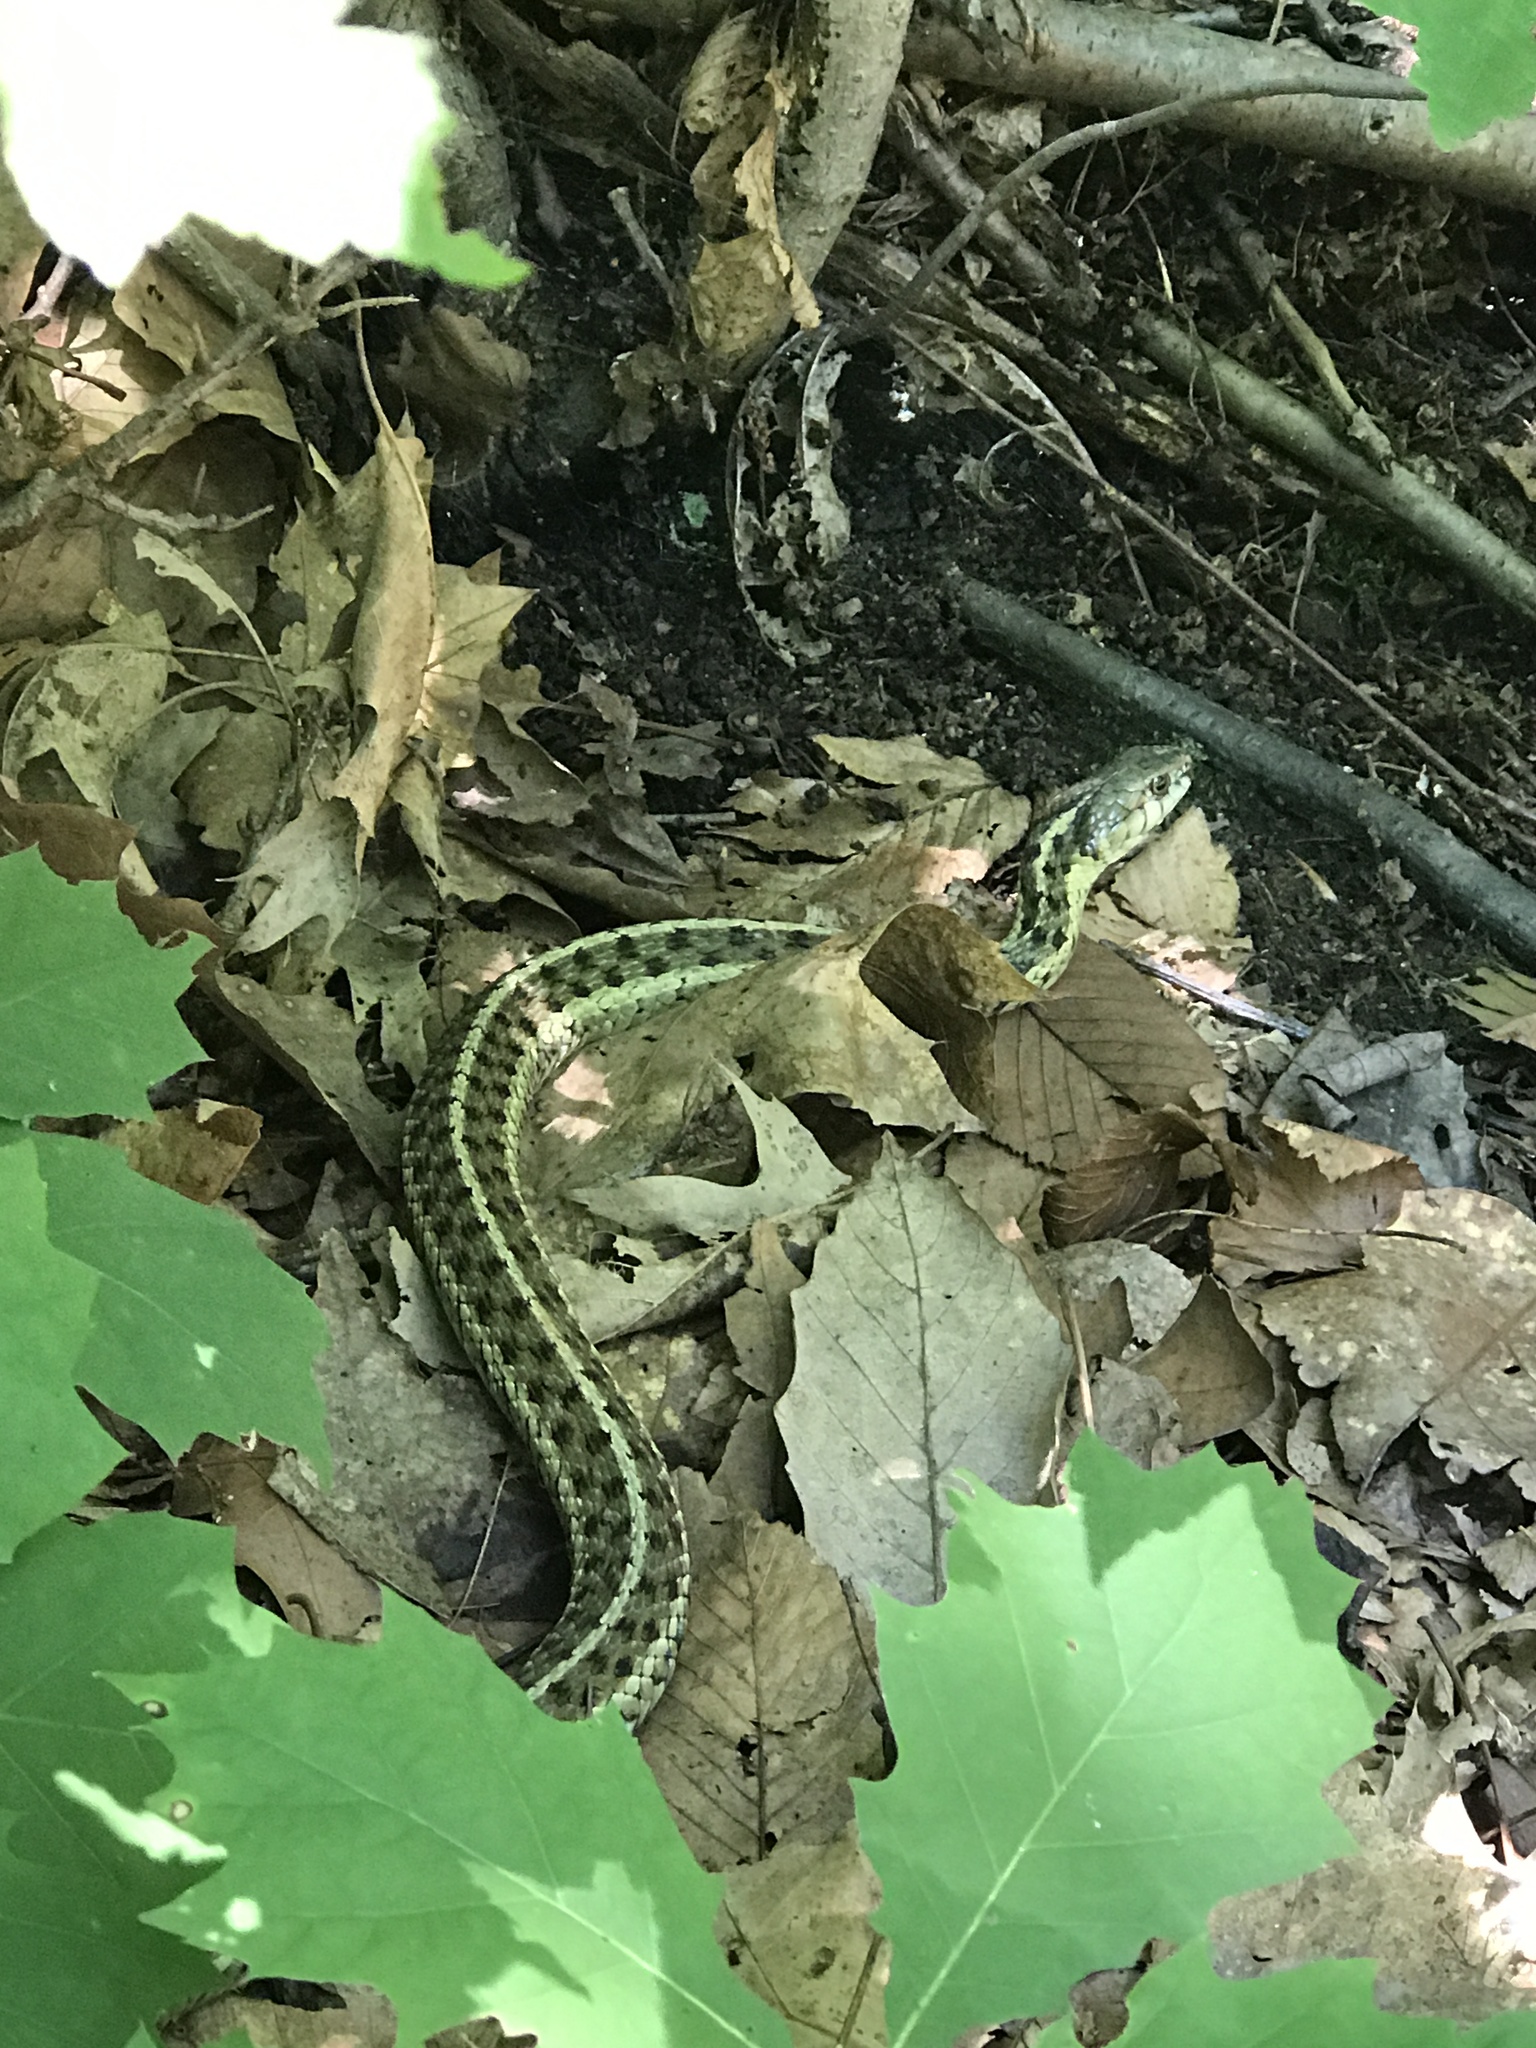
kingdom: Animalia
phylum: Chordata
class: Squamata
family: Colubridae
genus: Thamnophis
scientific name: Thamnophis sirtalis
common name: Common garter snake
